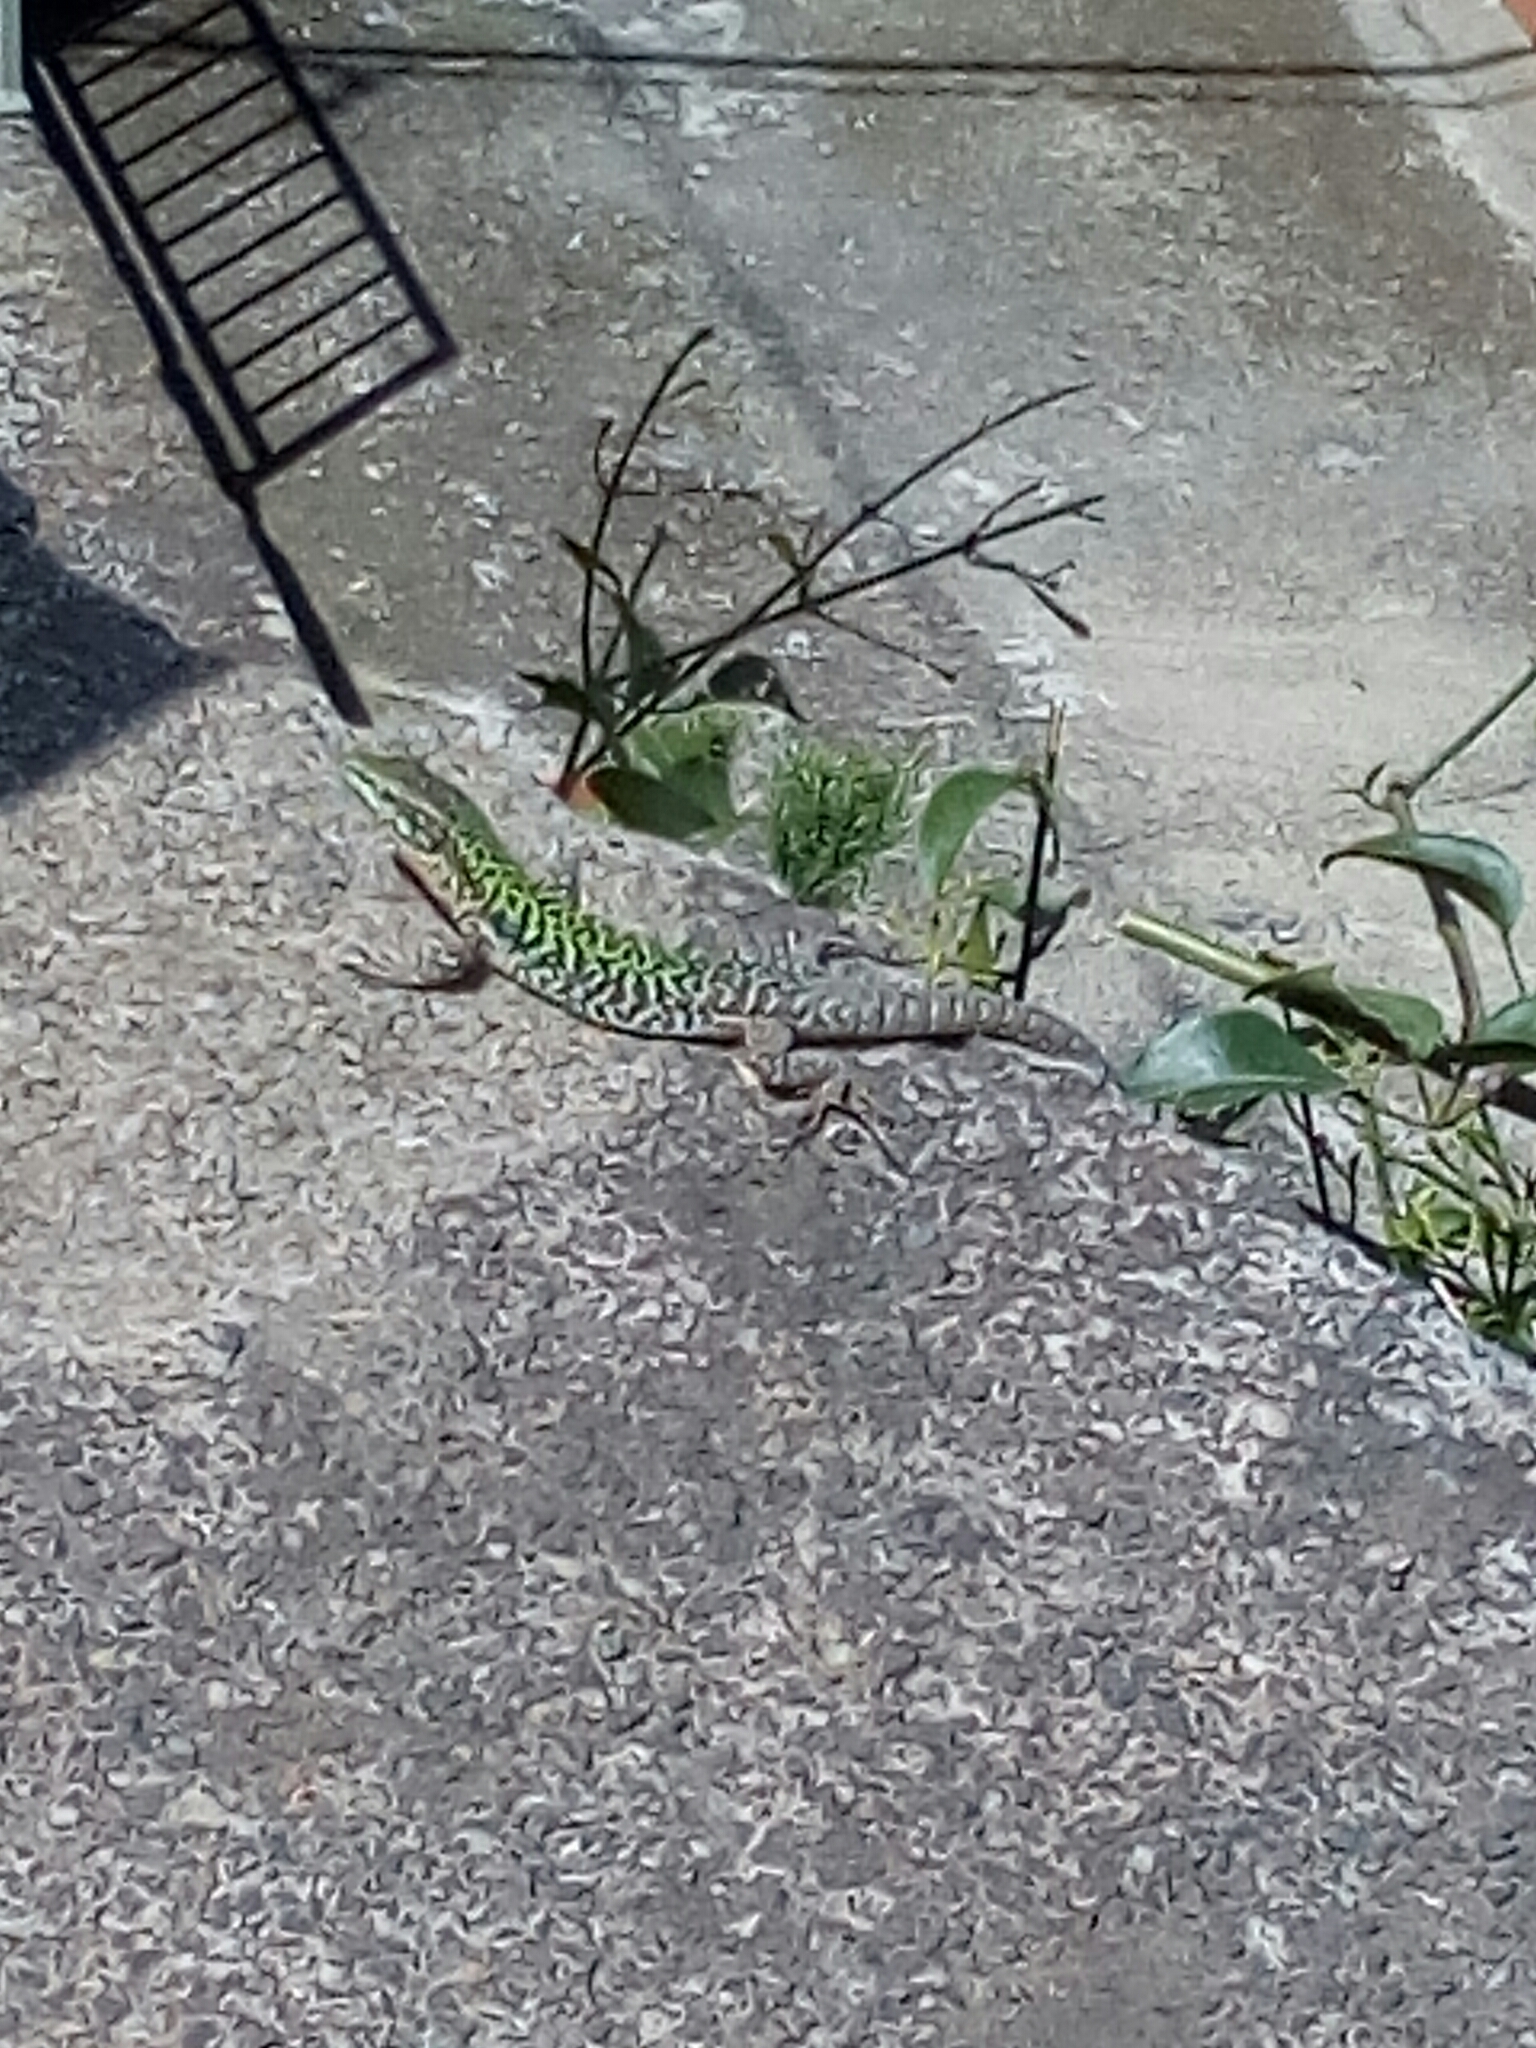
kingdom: Animalia
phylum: Chordata
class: Squamata
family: Lacertidae
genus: Podarcis
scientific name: Podarcis siculus
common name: Italian wall lizard
